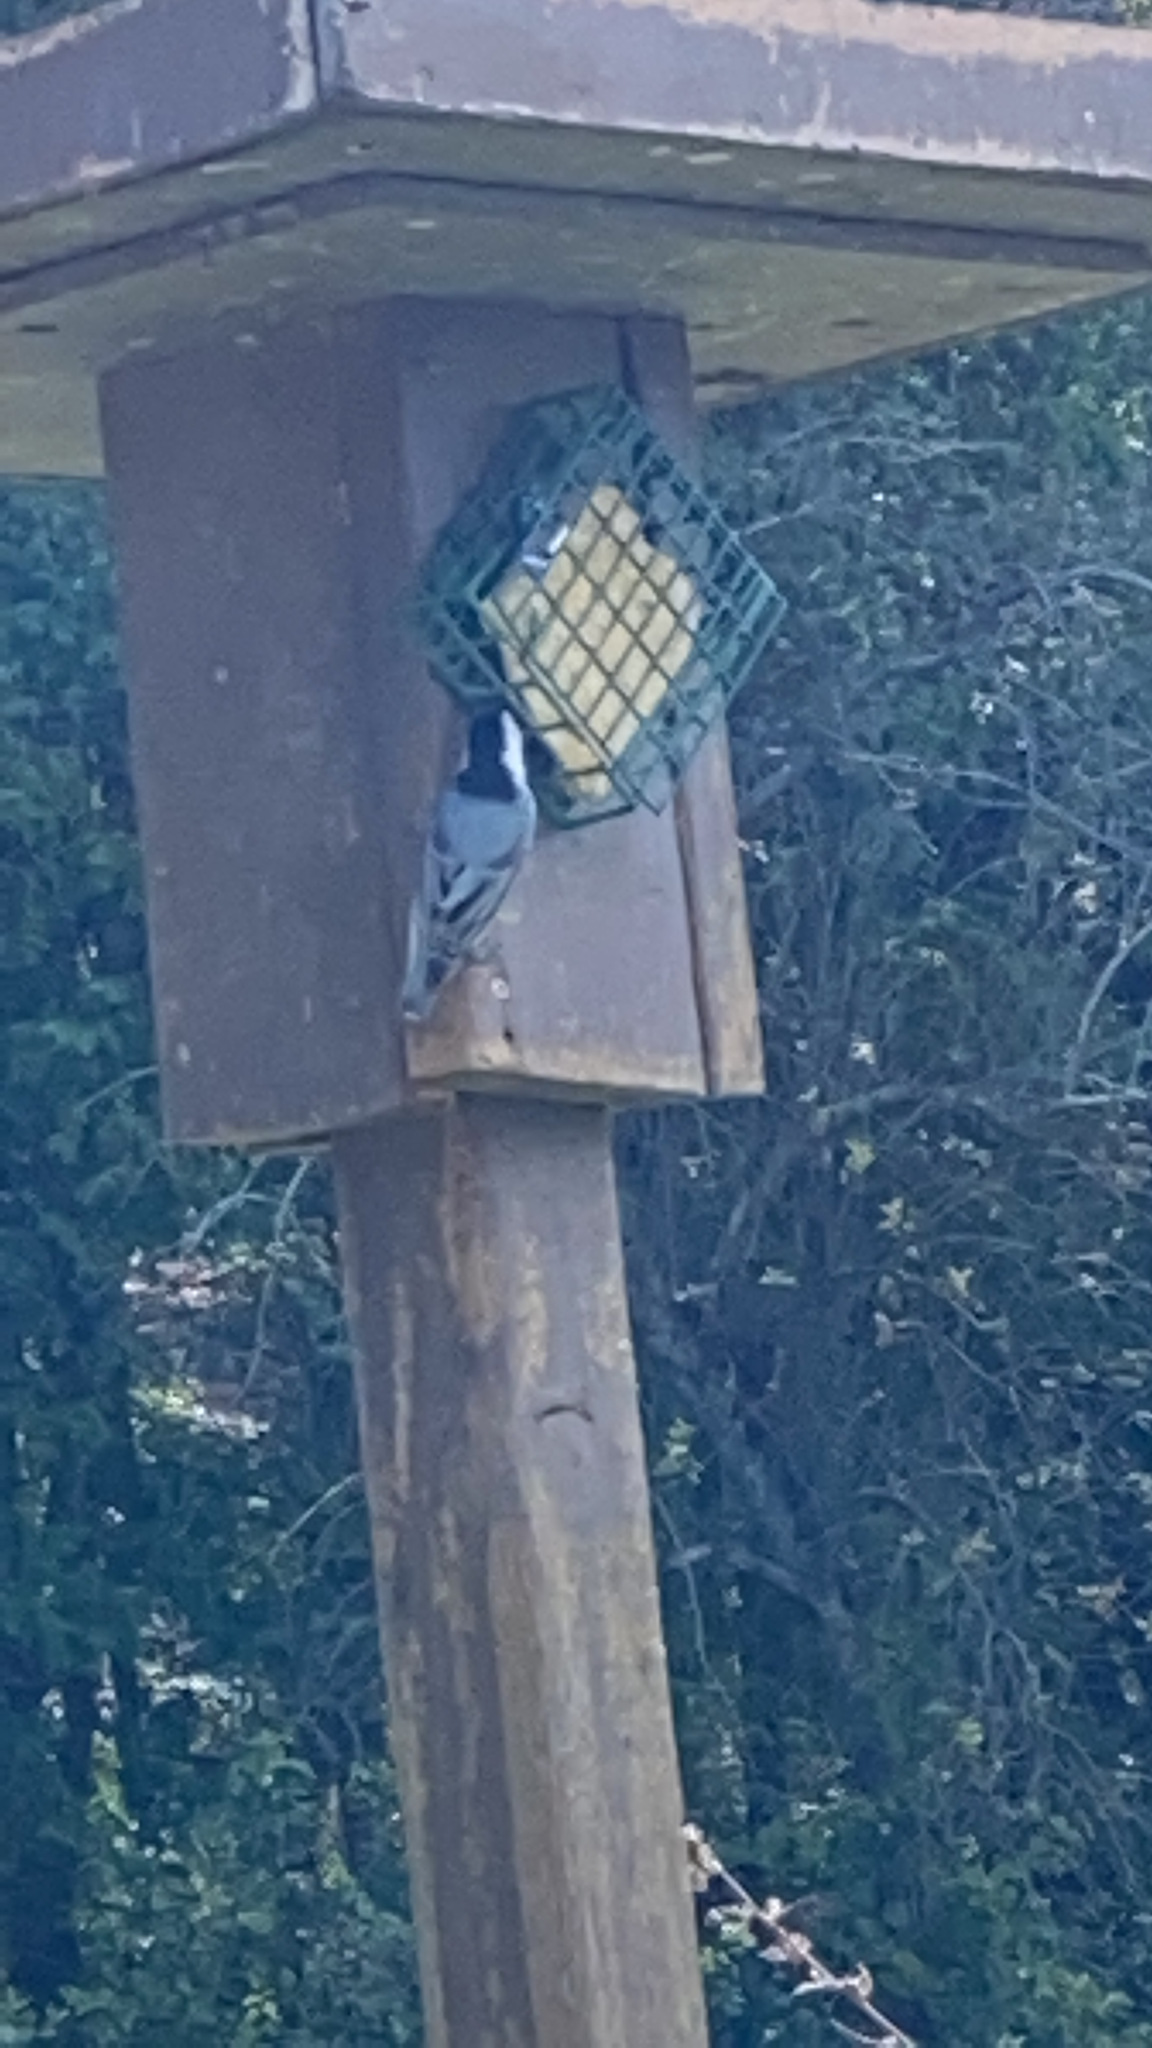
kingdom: Animalia
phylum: Chordata
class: Aves
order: Passeriformes
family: Sittidae
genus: Sitta
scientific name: Sitta carolinensis
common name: White-breasted nuthatch
